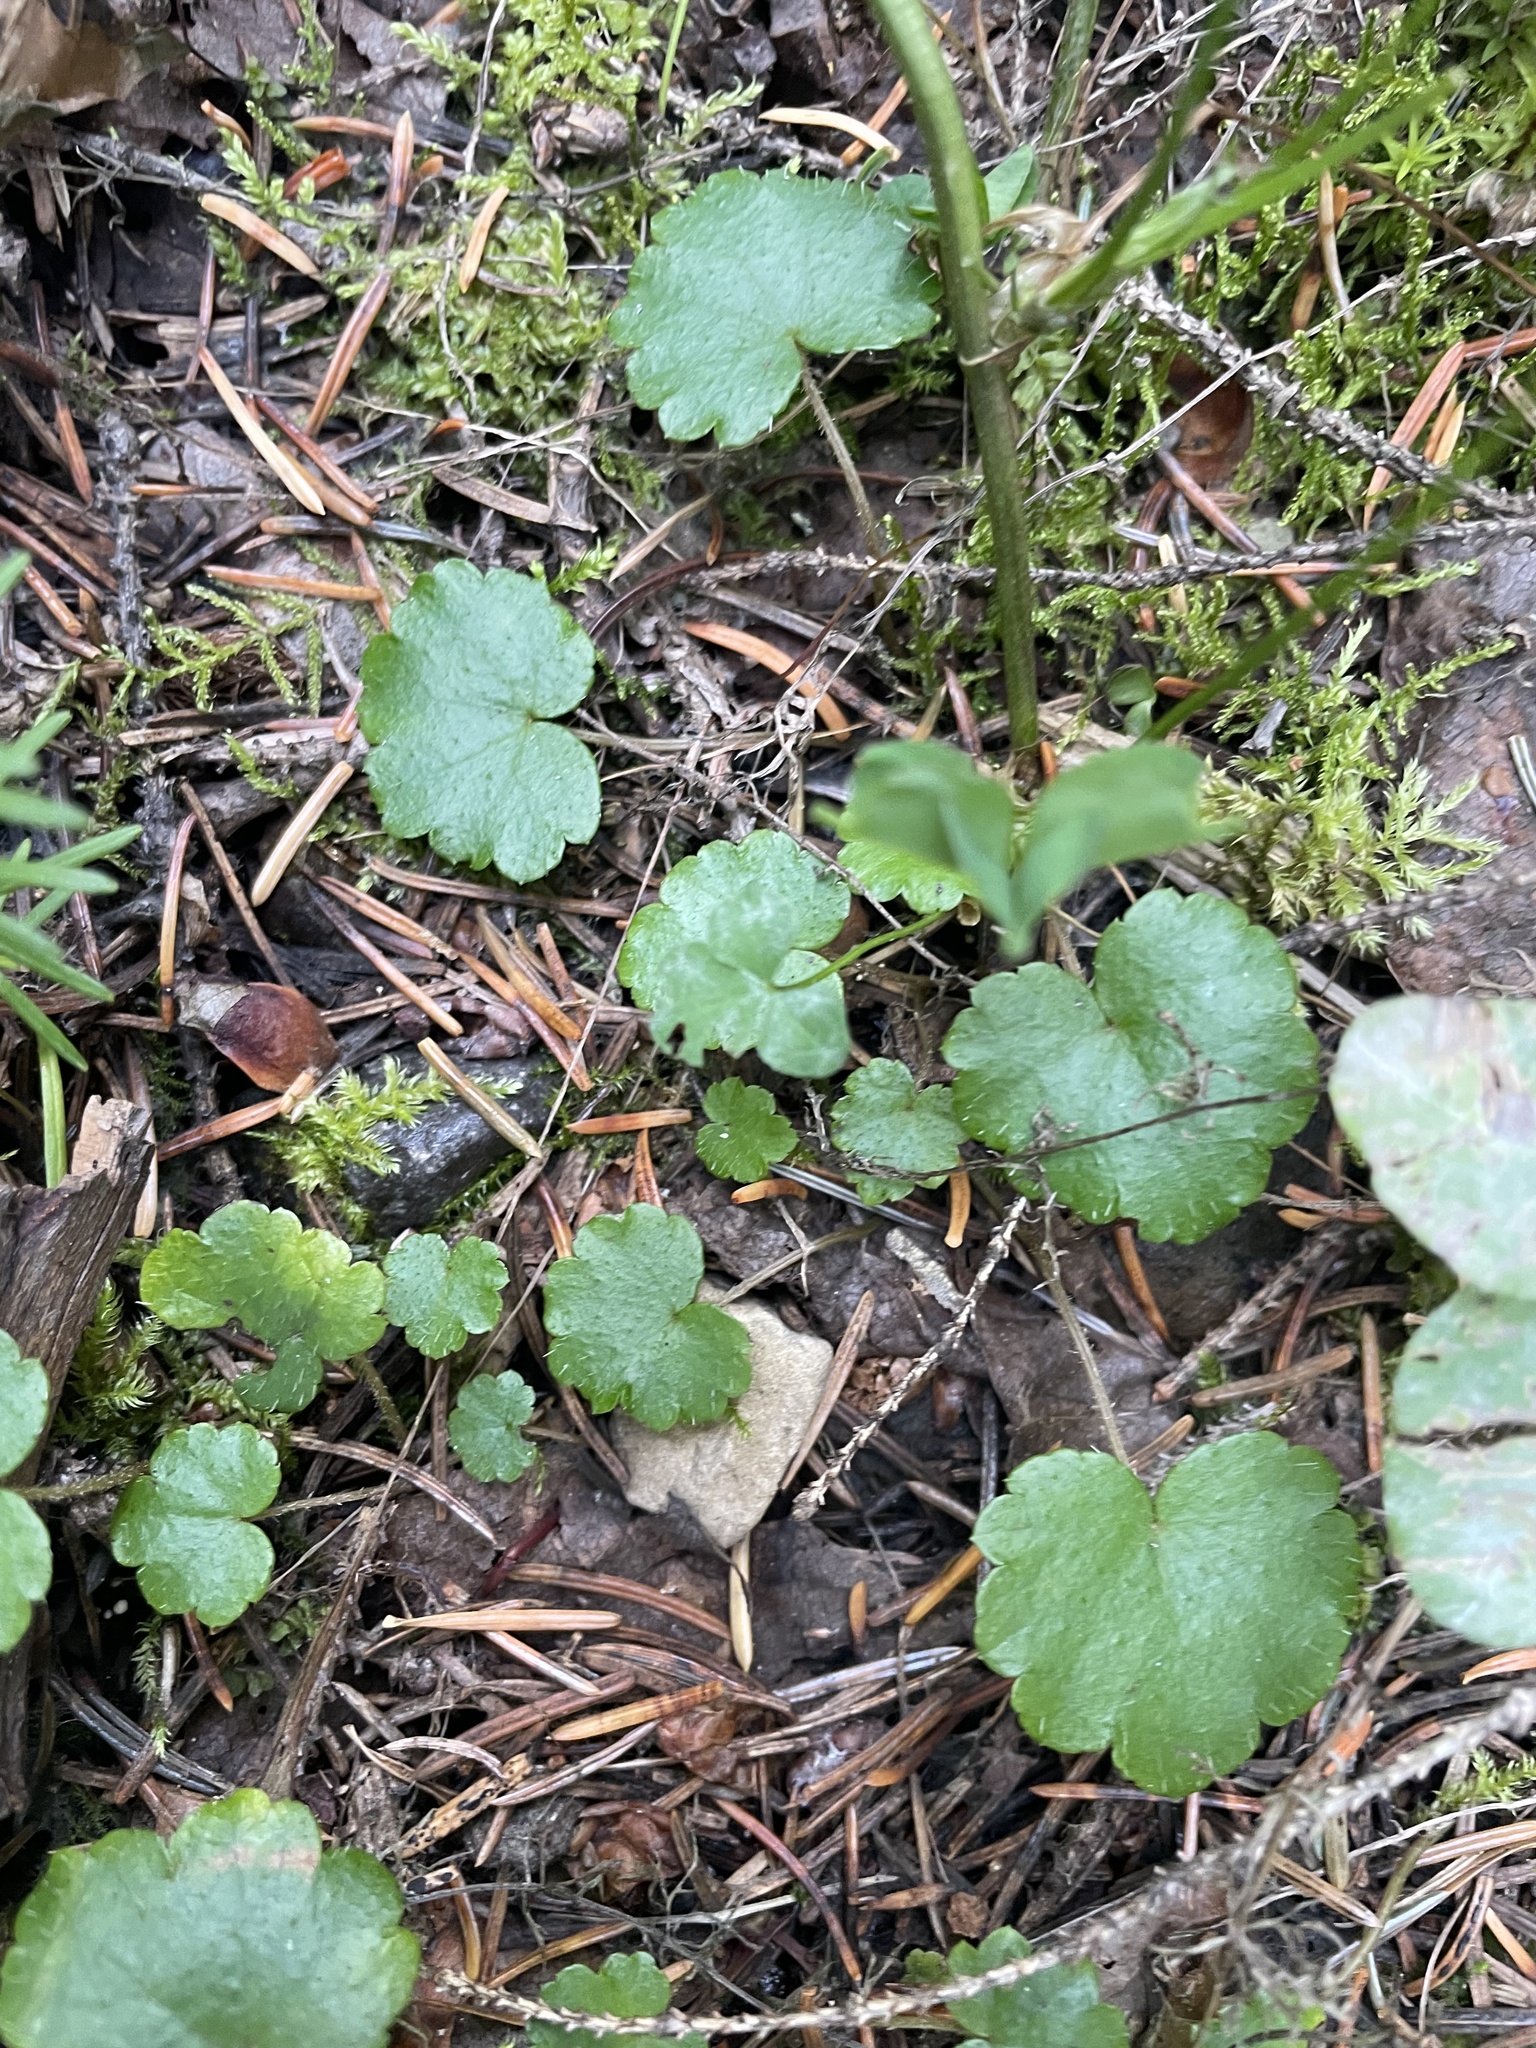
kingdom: Plantae
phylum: Tracheophyta
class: Magnoliopsida
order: Saxifragales
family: Saxifragaceae
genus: Mitella
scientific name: Mitella nuda
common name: Bare-stemmed bishop's-cap
